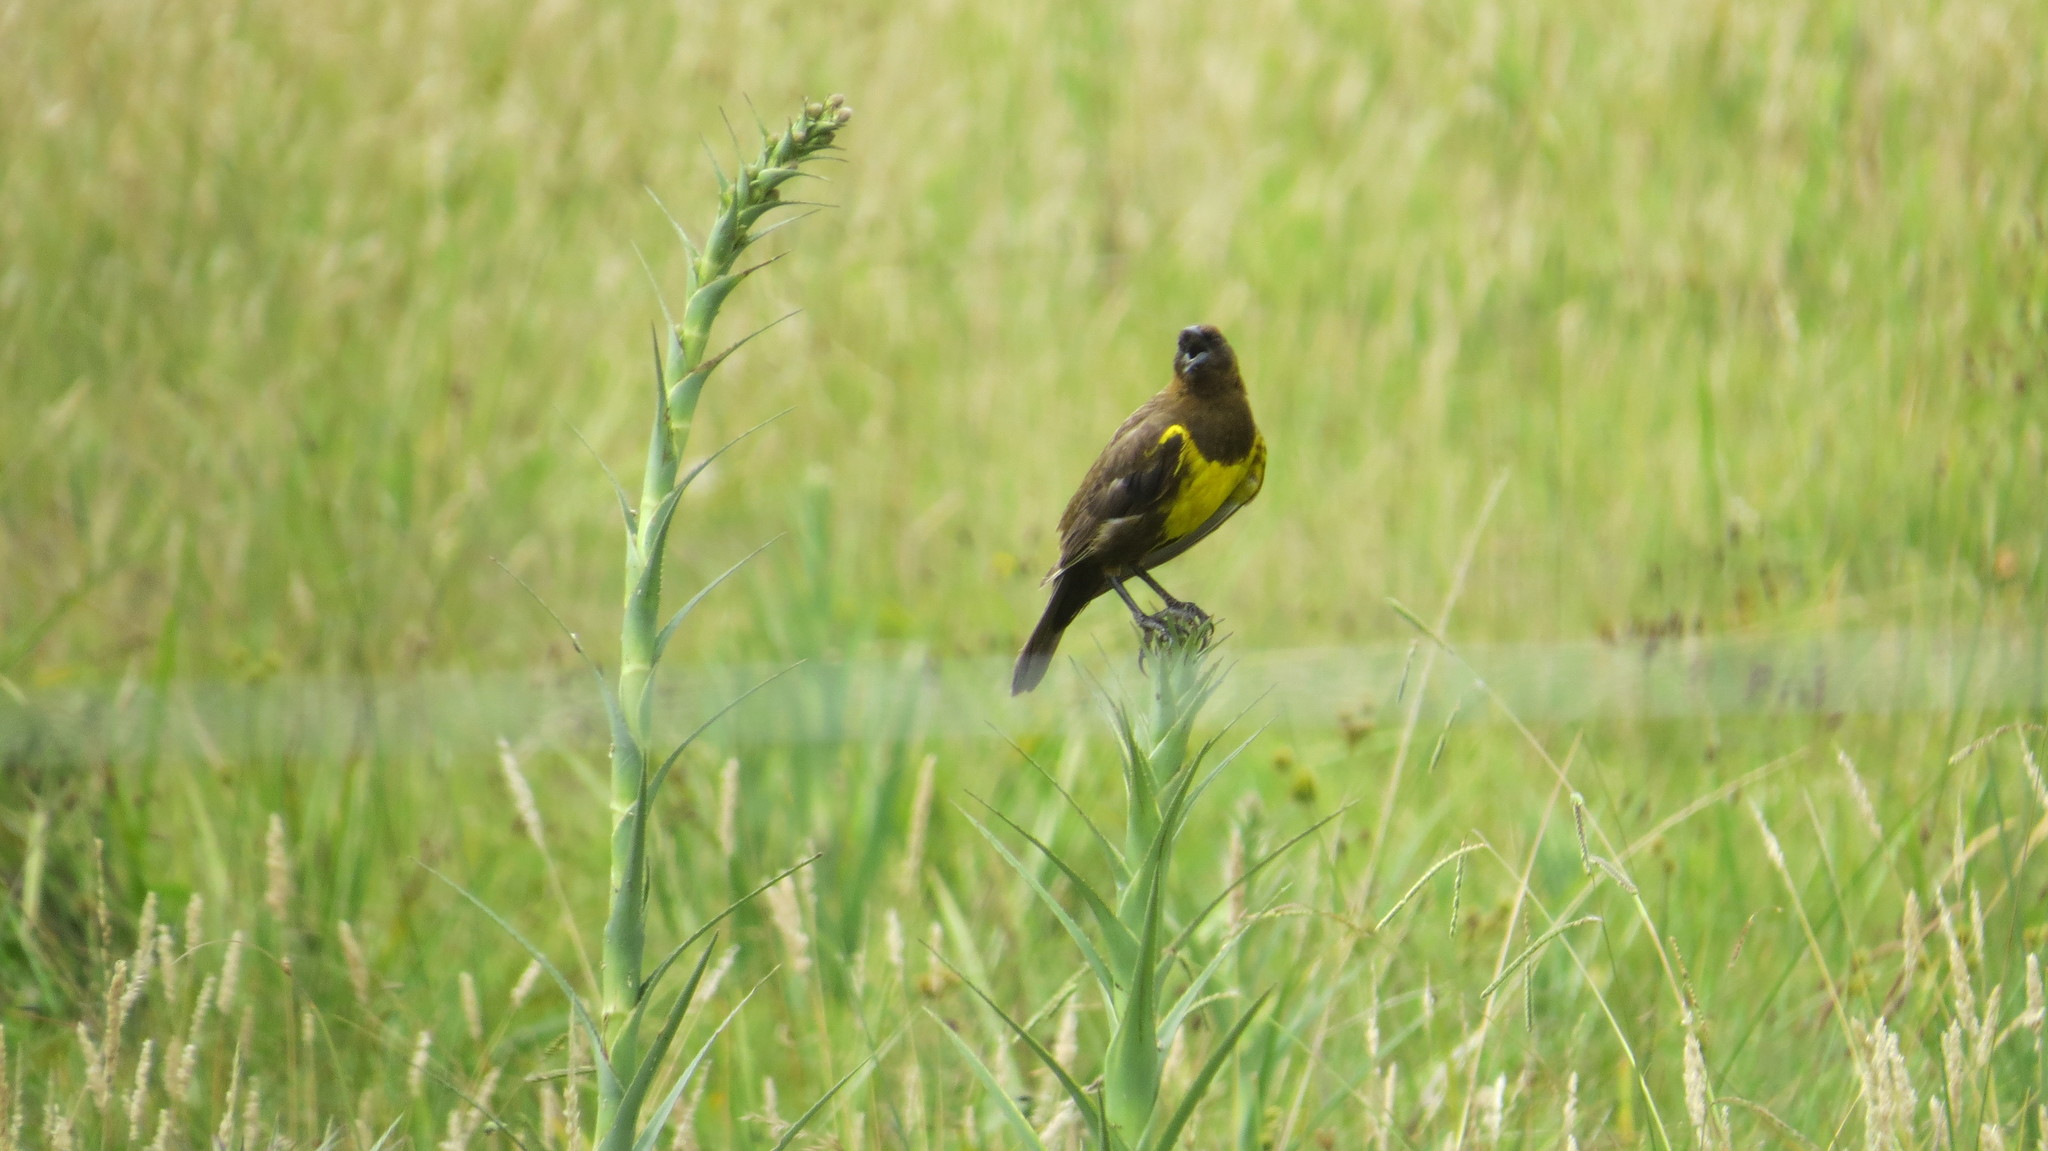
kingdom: Animalia
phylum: Chordata
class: Aves
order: Passeriformes
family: Icteridae
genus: Pseudoleistes
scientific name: Pseudoleistes virescens
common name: Brown-and-yellow marshbird
